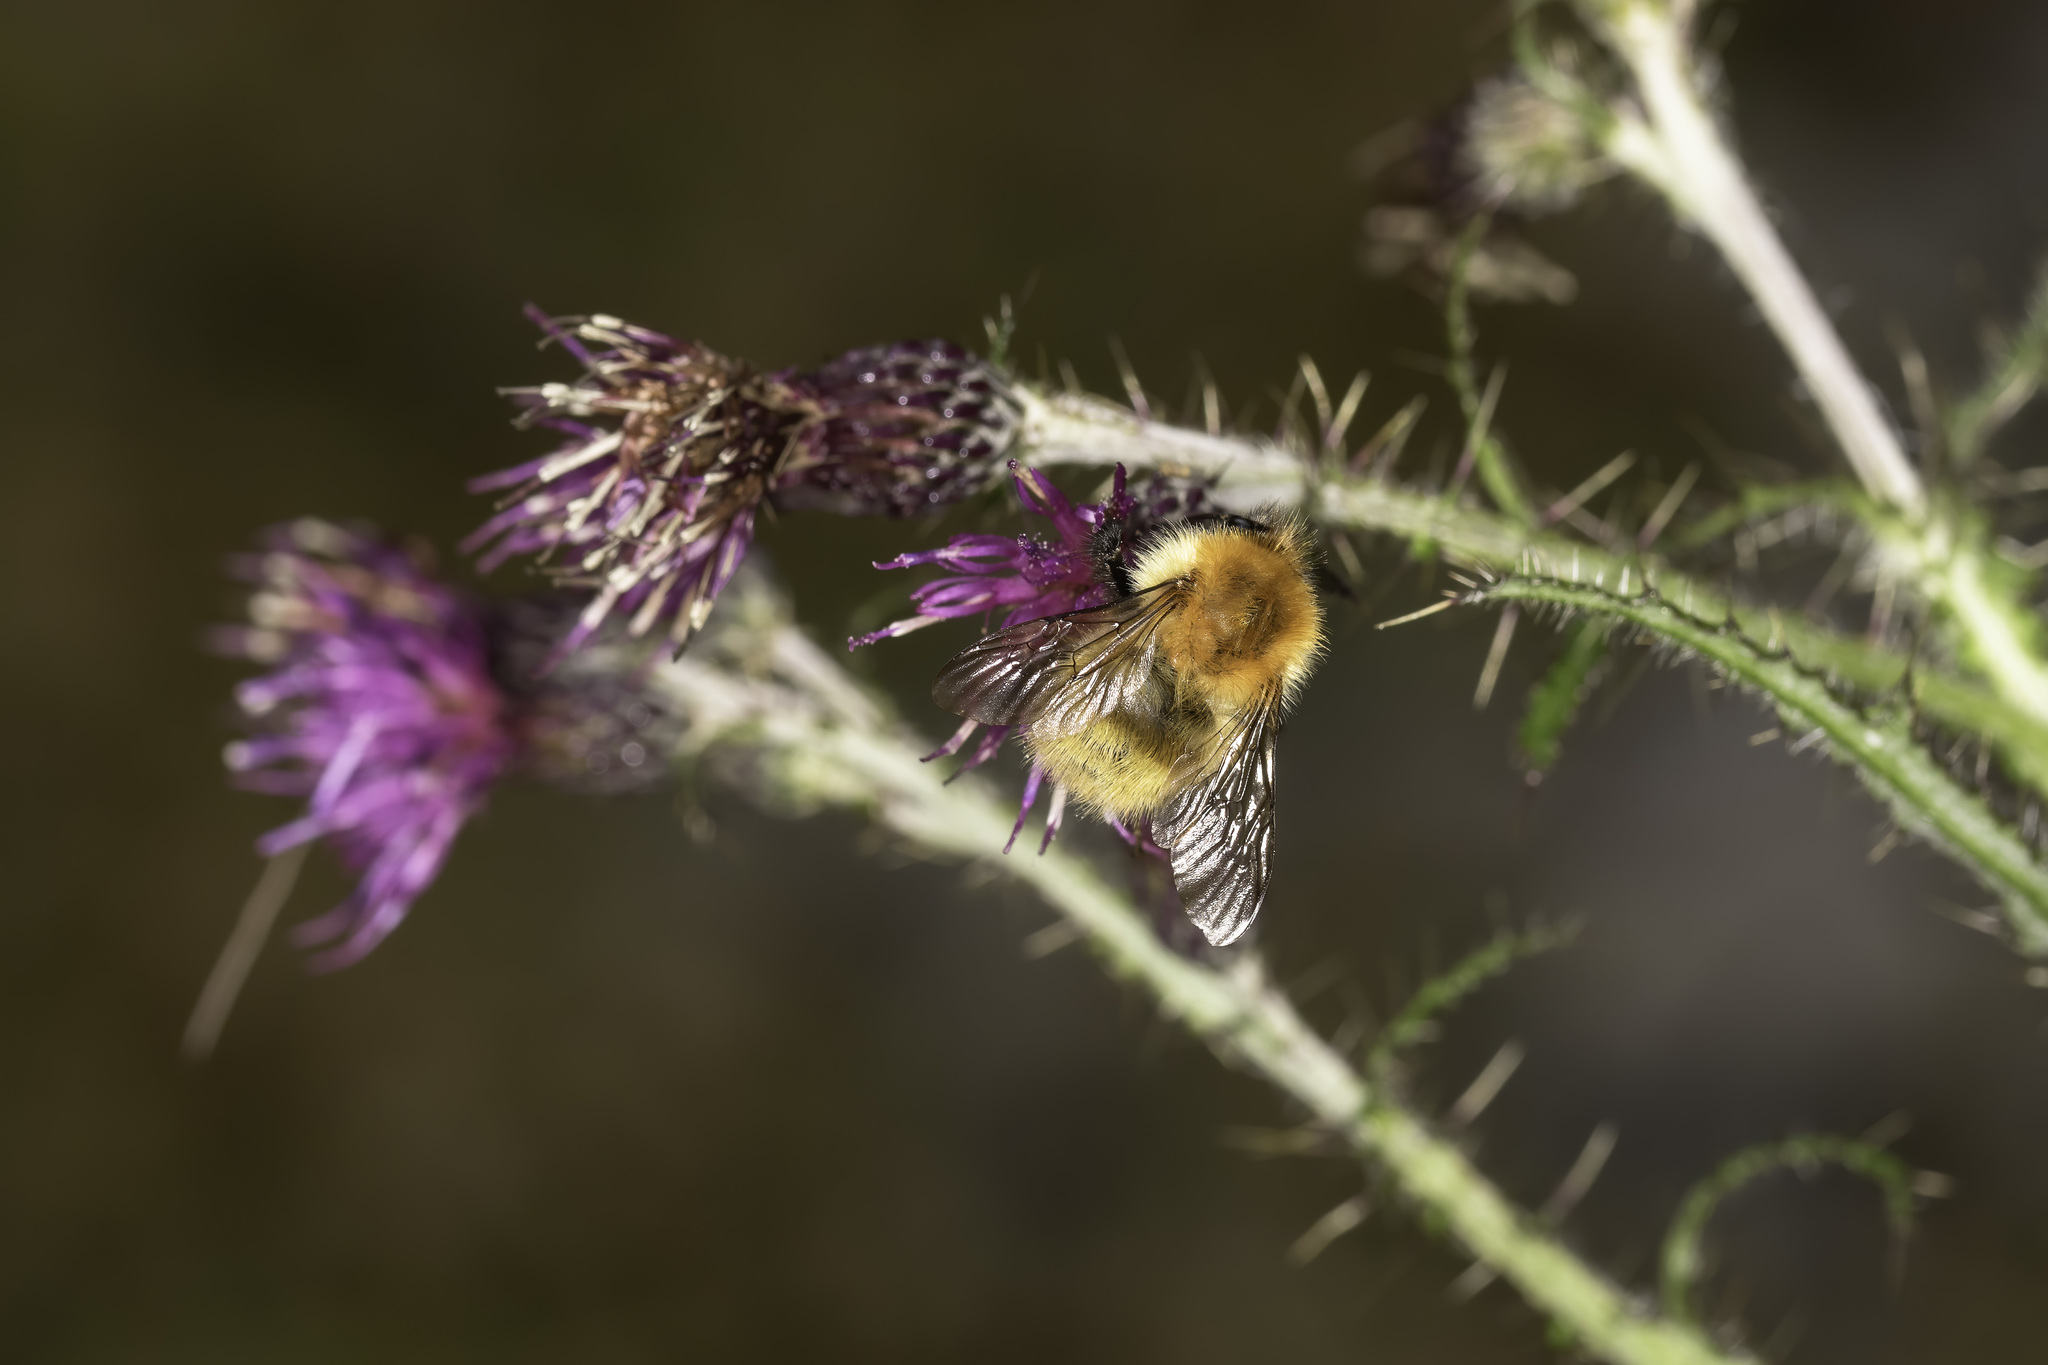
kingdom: Animalia
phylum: Arthropoda
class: Insecta
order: Hymenoptera
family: Apidae
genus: Bombus
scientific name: Bombus pascuorum
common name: Common carder bee
